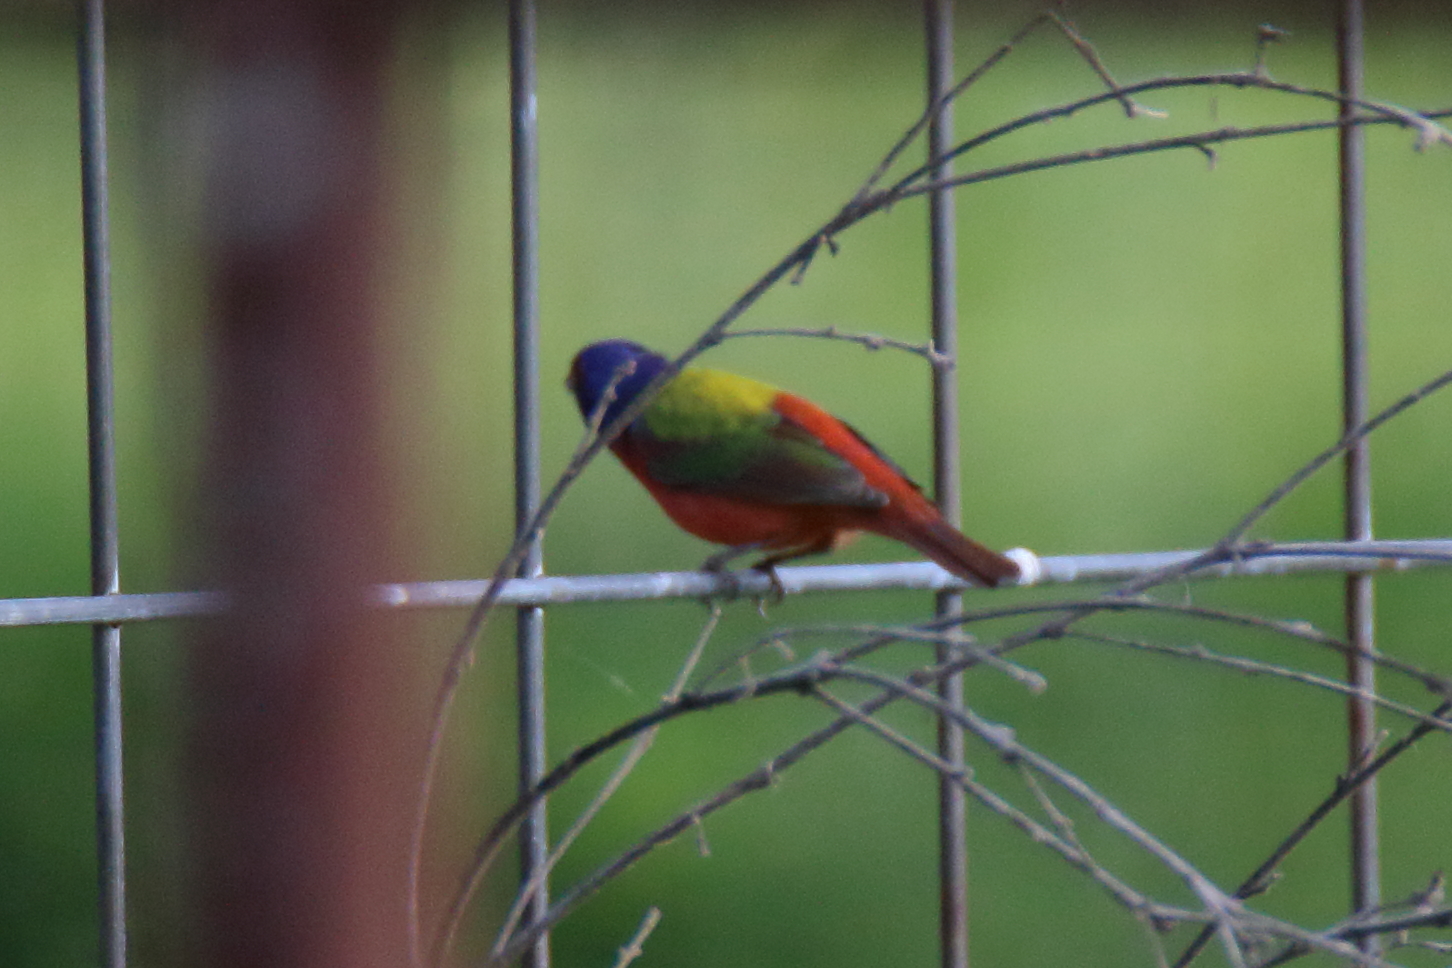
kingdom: Animalia
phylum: Chordata
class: Aves
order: Passeriformes
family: Cardinalidae
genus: Passerina
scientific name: Passerina ciris
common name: Painted bunting
